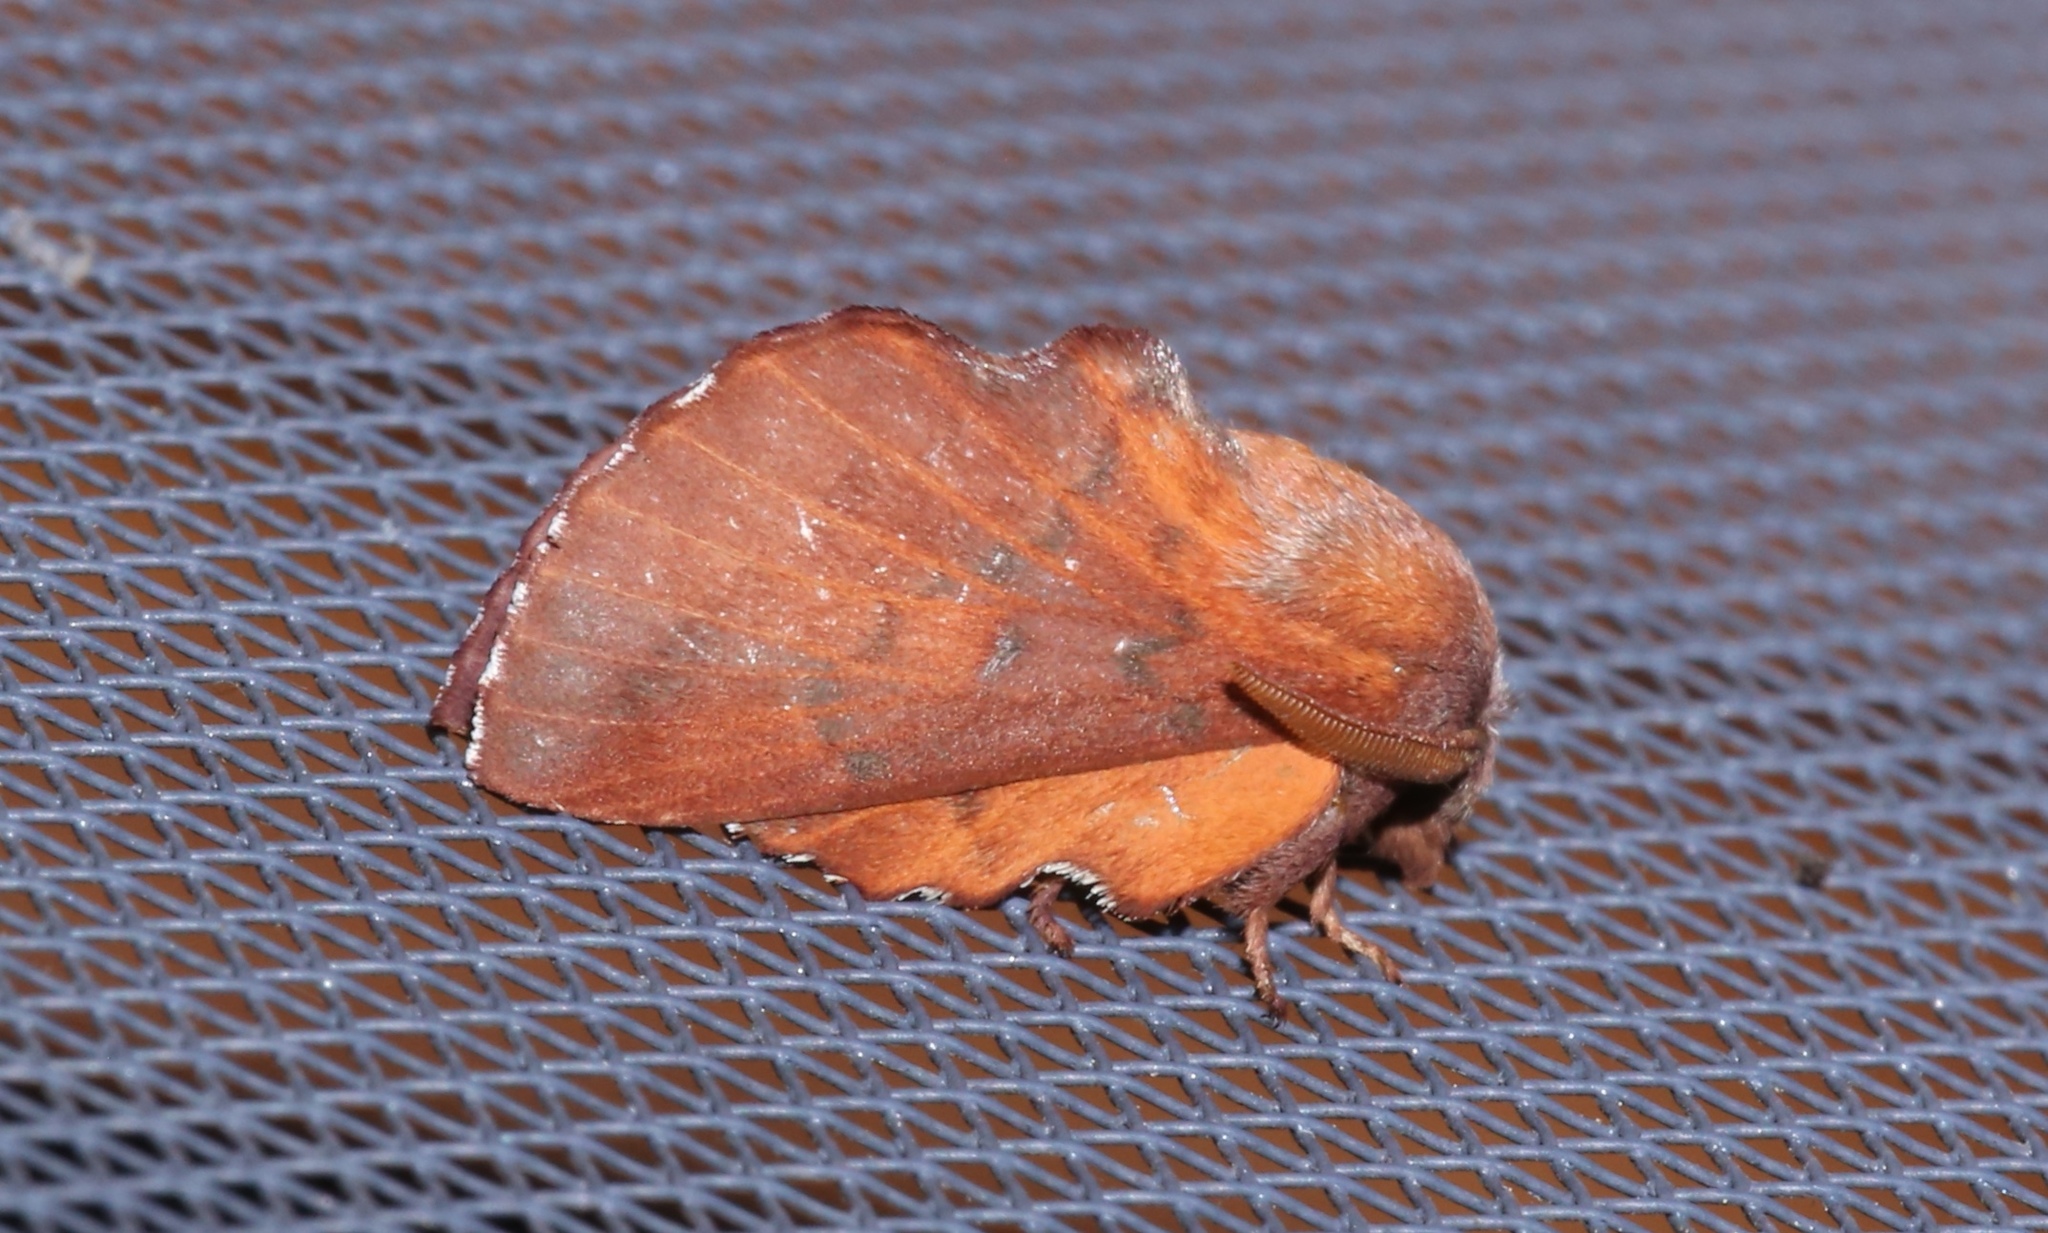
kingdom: Animalia
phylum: Arthropoda
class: Insecta
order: Lepidoptera
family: Lasiocampidae
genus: Phyllodesma
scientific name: Phyllodesma americana
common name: American lappet moth
